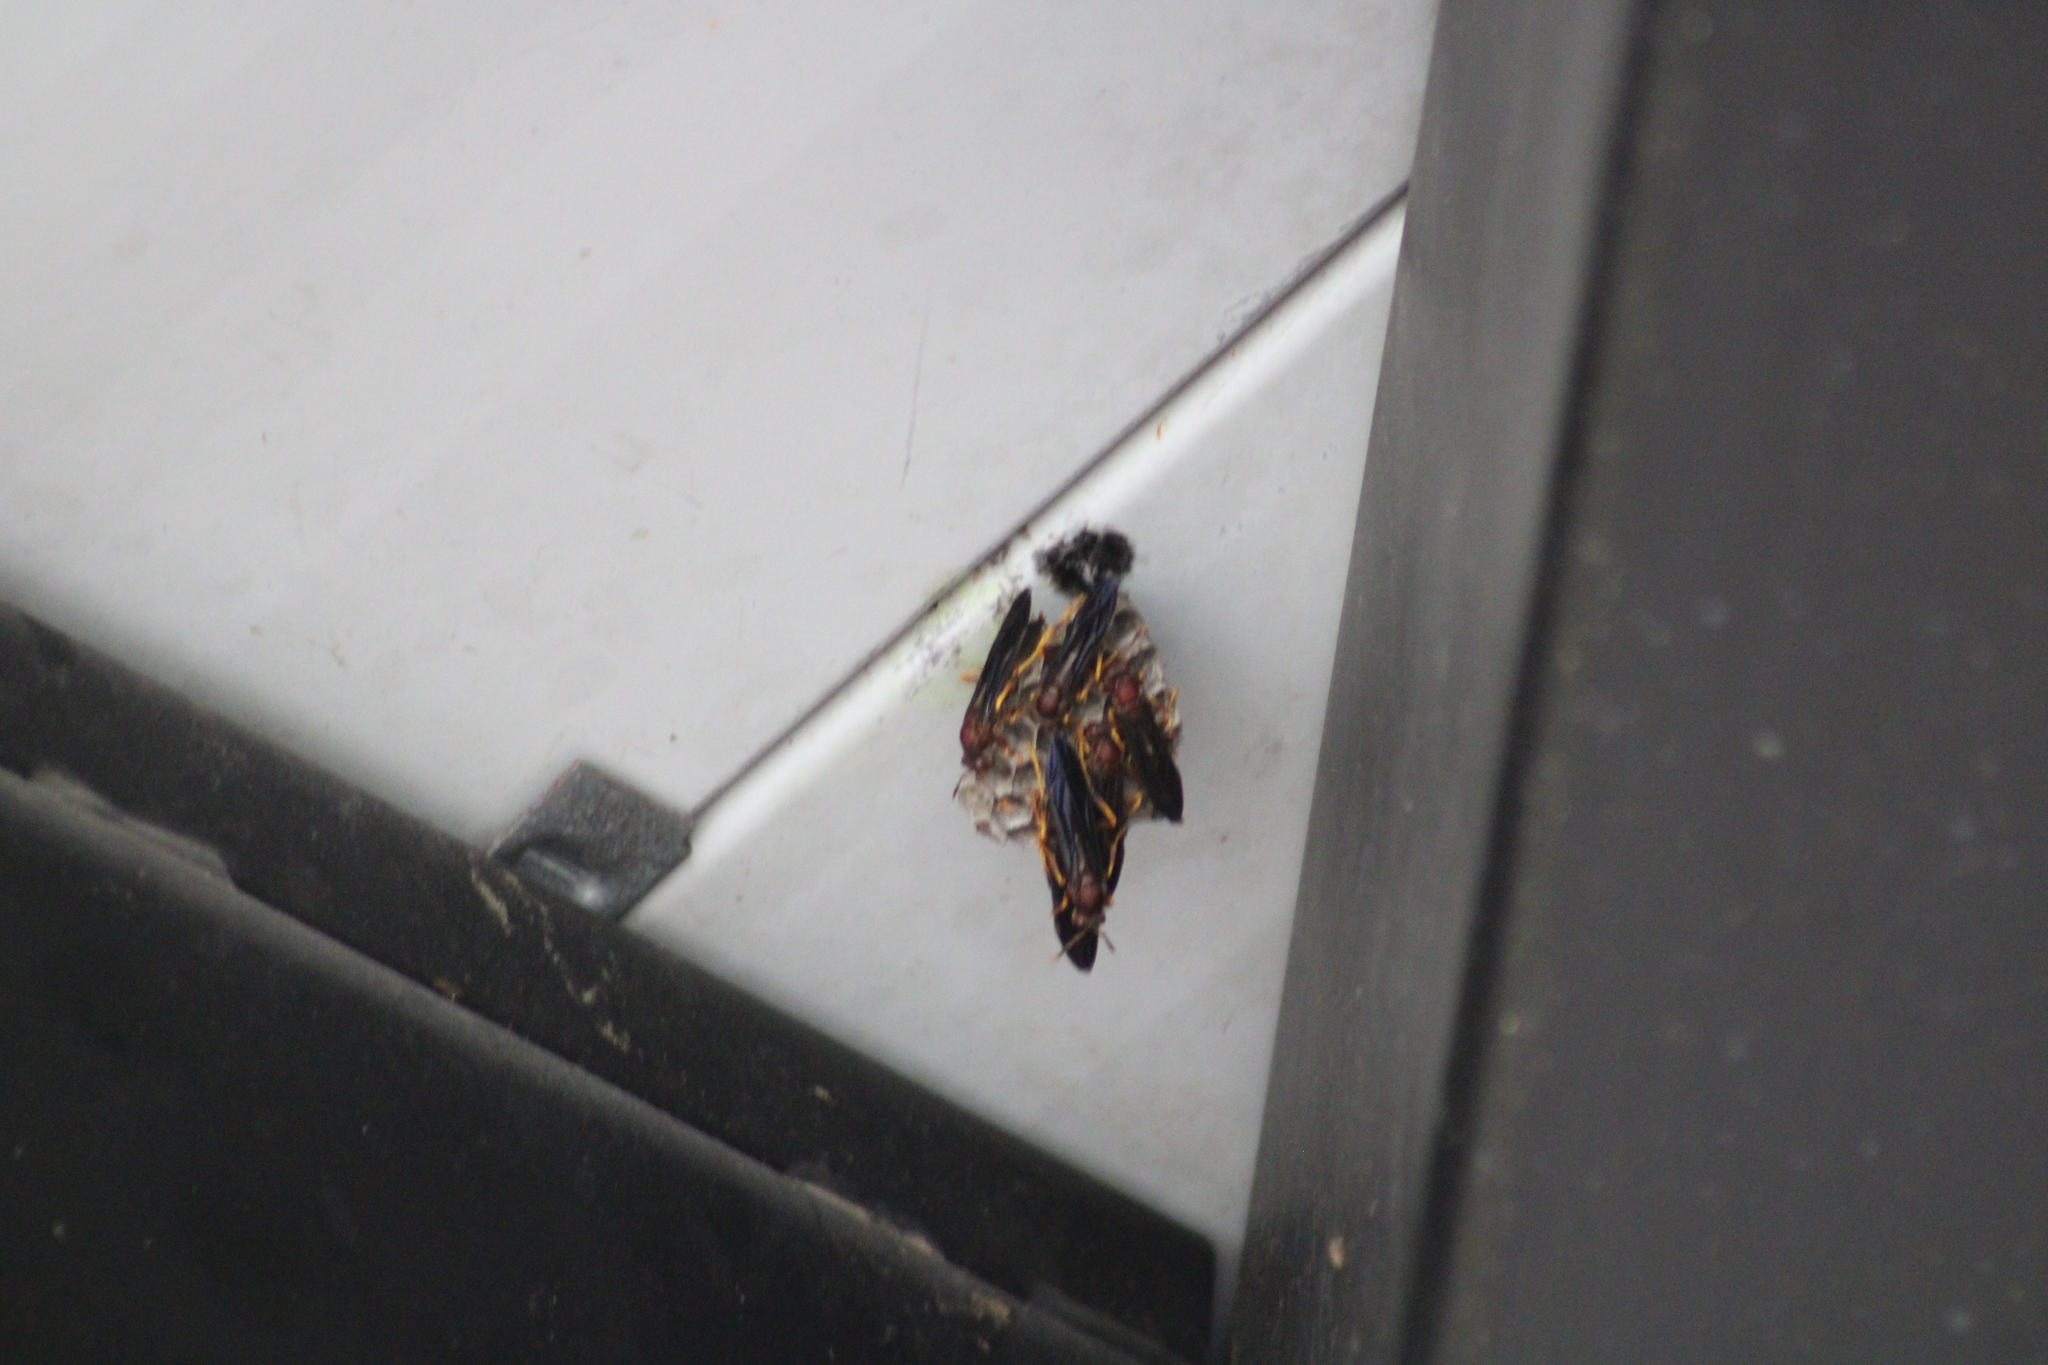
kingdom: Animalia
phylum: Arthropoda
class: Insecta
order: Hymenoptera
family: Eumenidae
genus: Polistes
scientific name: Polistes annularis
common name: Ringed paper wasp
